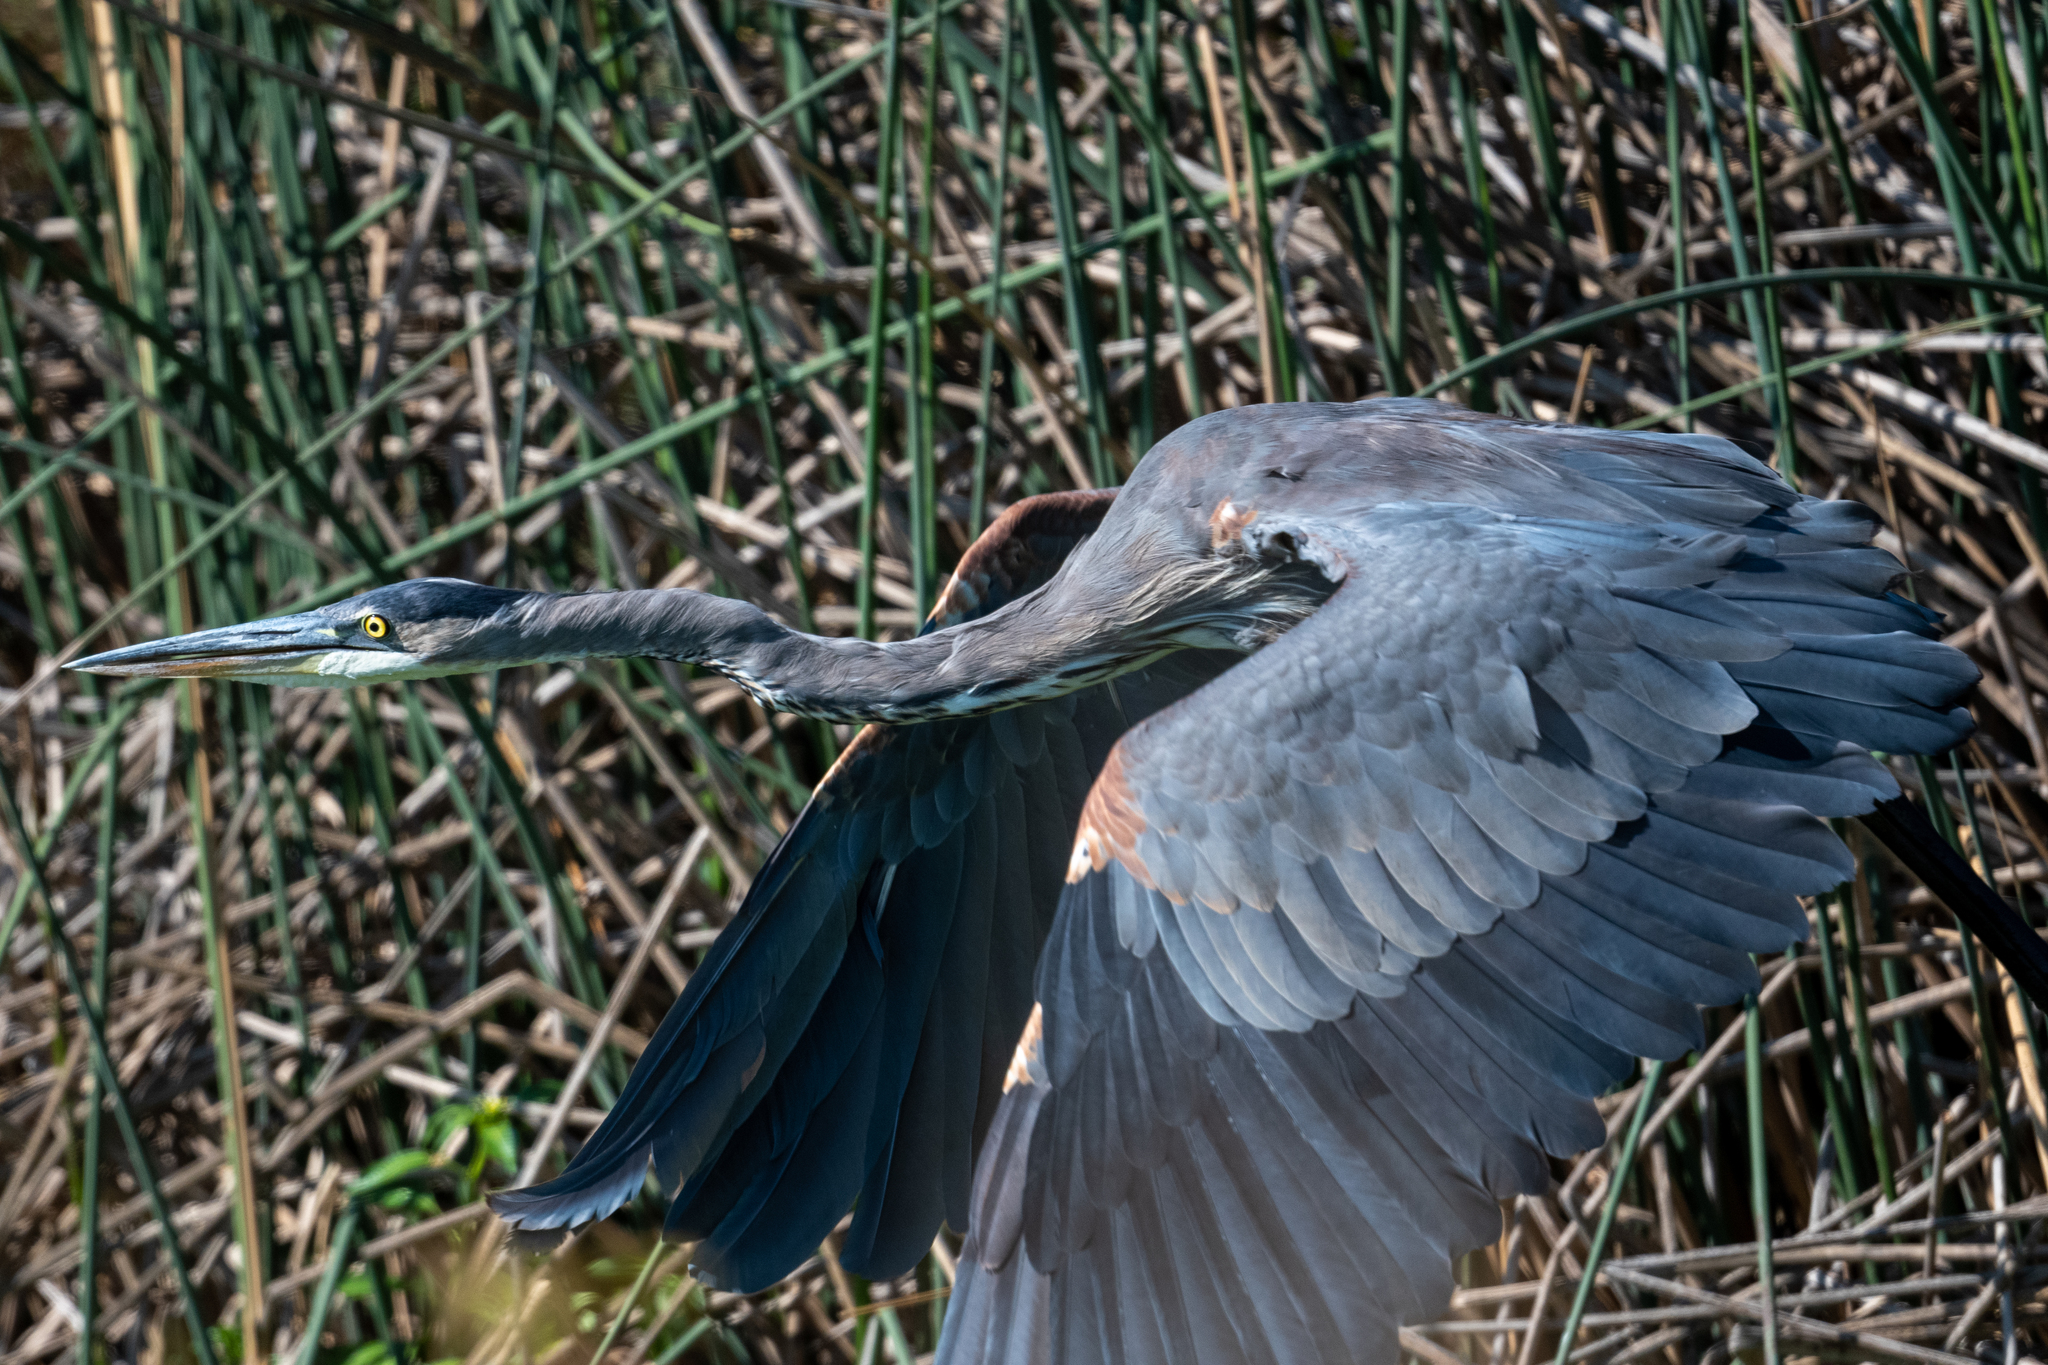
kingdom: Animalia
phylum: Chordata
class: Aves
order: Pelecaniformes
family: Ardeidae
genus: Ardea
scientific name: Ardea herodias
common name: Great blue heron
